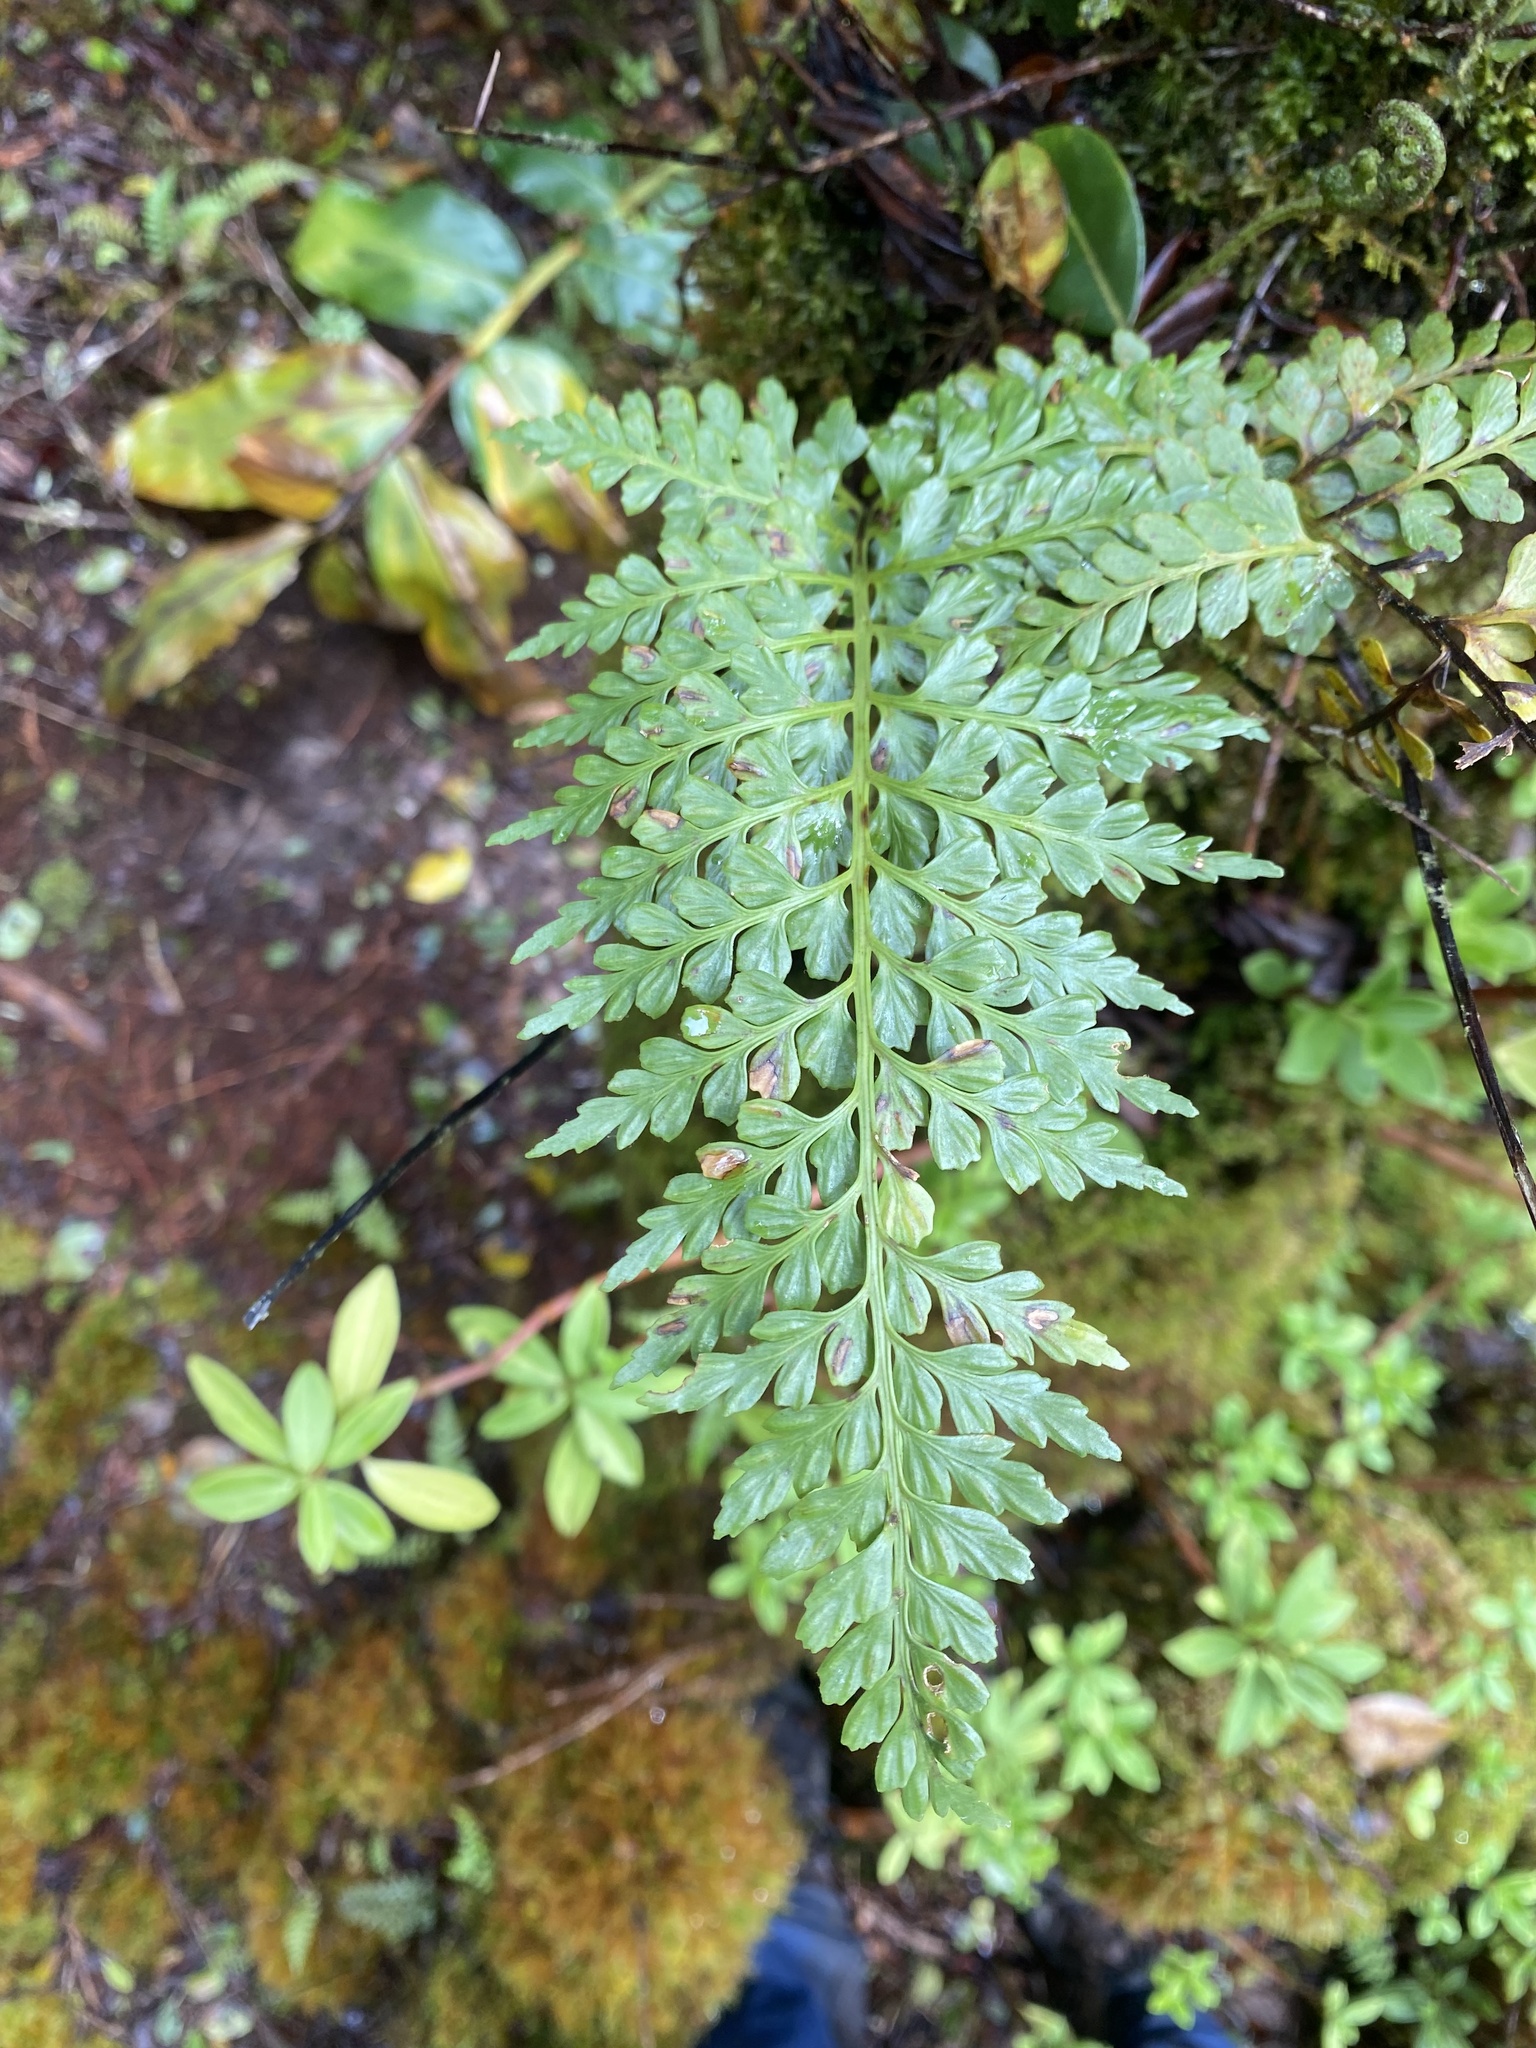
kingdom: Plantae
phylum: Tracheophyta
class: Polypodiopsida
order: Polypodiales
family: Aspleniaceae
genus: Asplenium
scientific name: Asplenium sphenotomum
